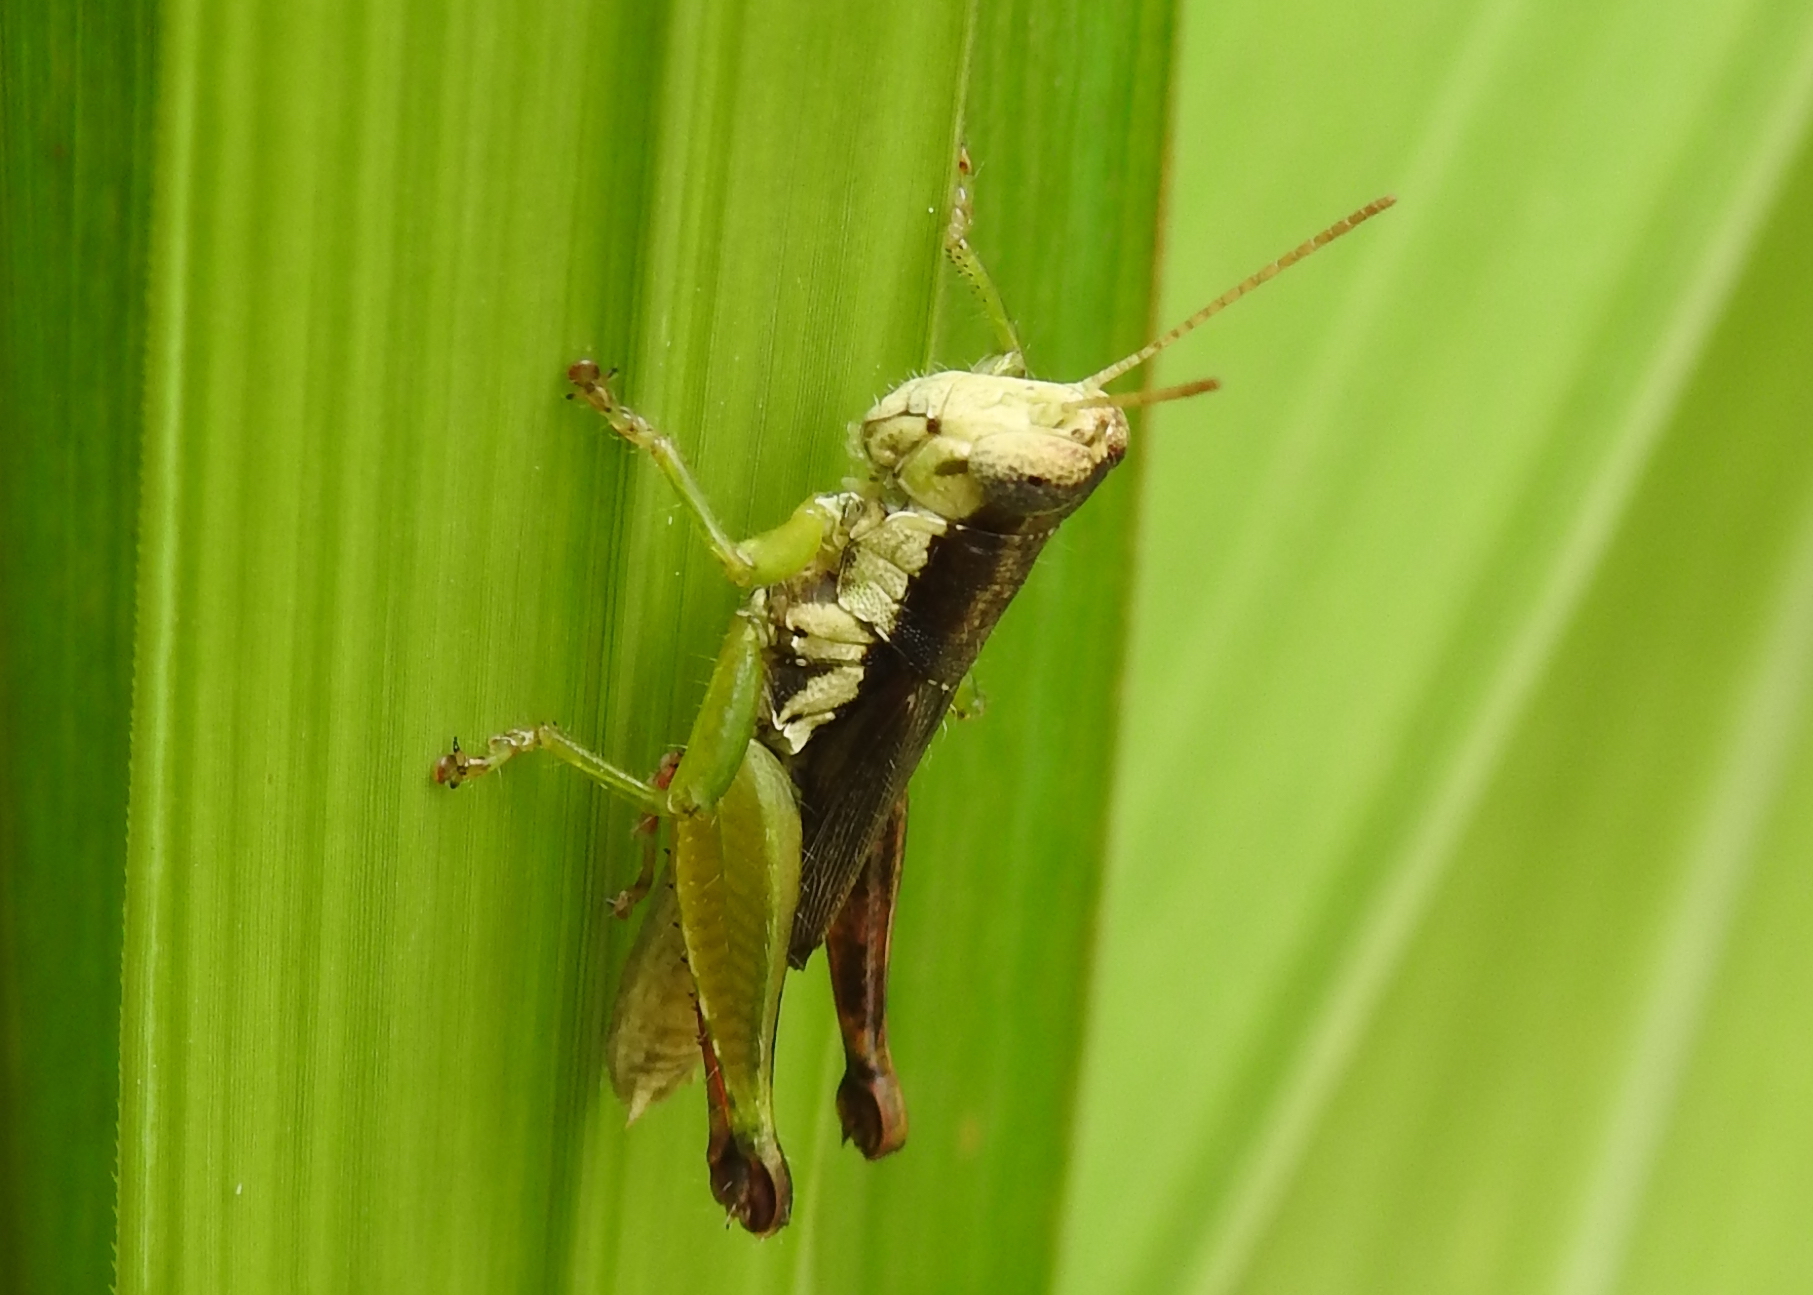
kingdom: Animalia
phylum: Arthropoda
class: Insecta
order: Orthoptera
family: Acrididae
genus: Pseudoxya
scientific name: Pseudoxya diminuta
